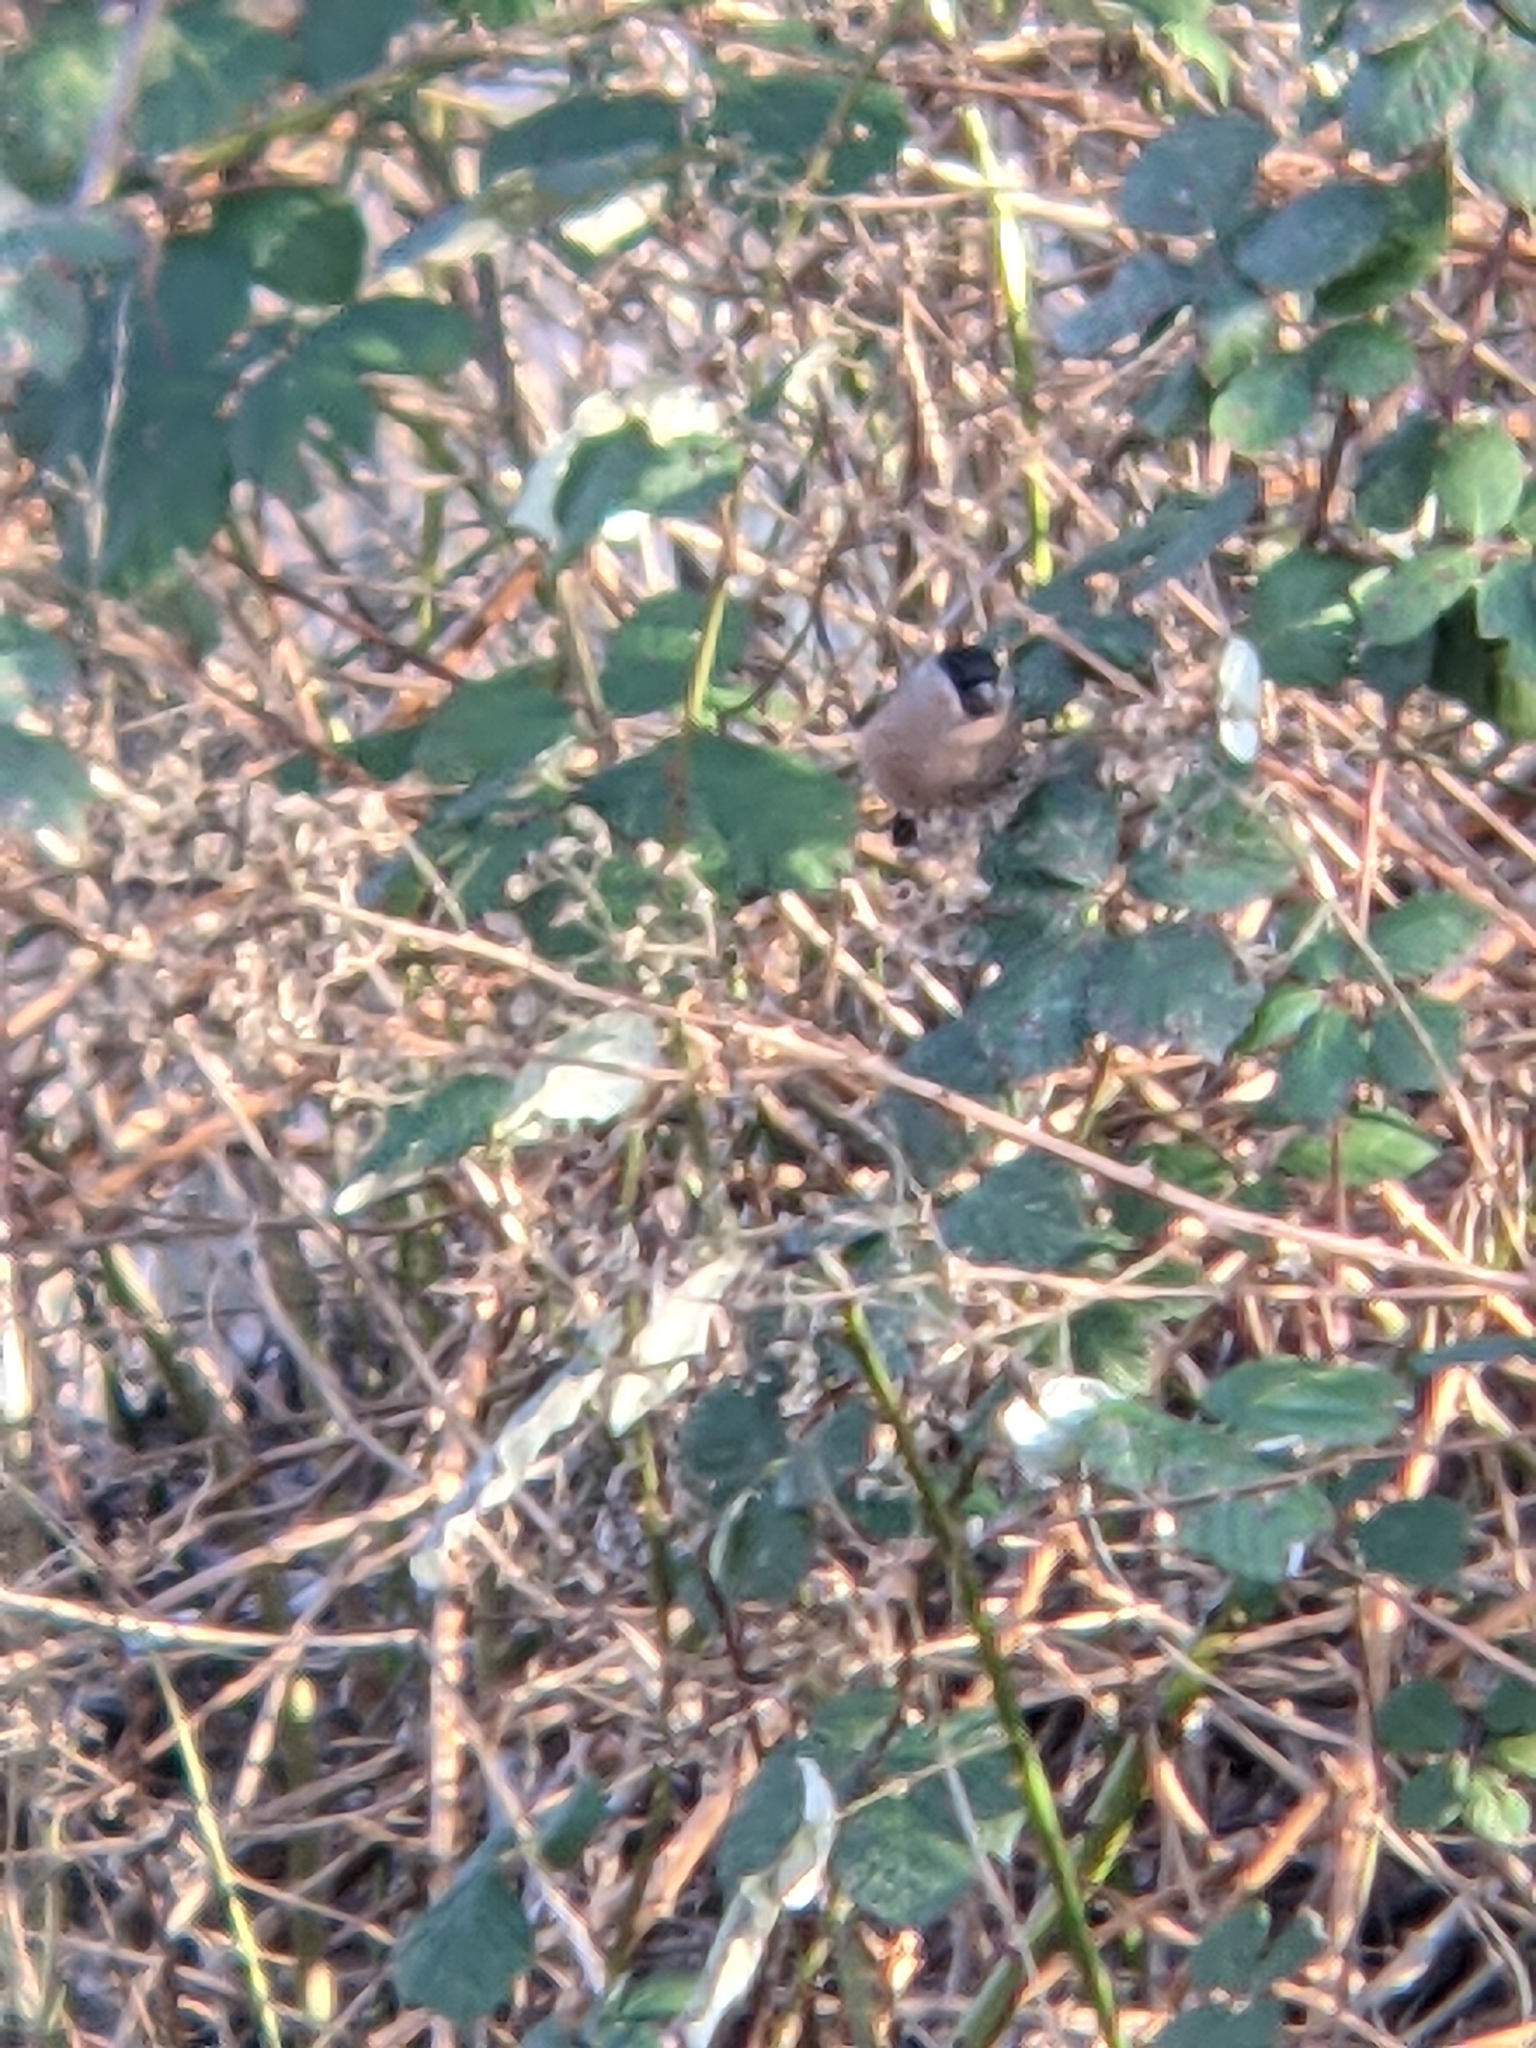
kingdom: Animalia
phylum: Chordata
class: Aves
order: Passeriformes
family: Fringillidae
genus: Pyrrhula
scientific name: Pyrrhula pyrrhula
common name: Eurasian bullfinch
